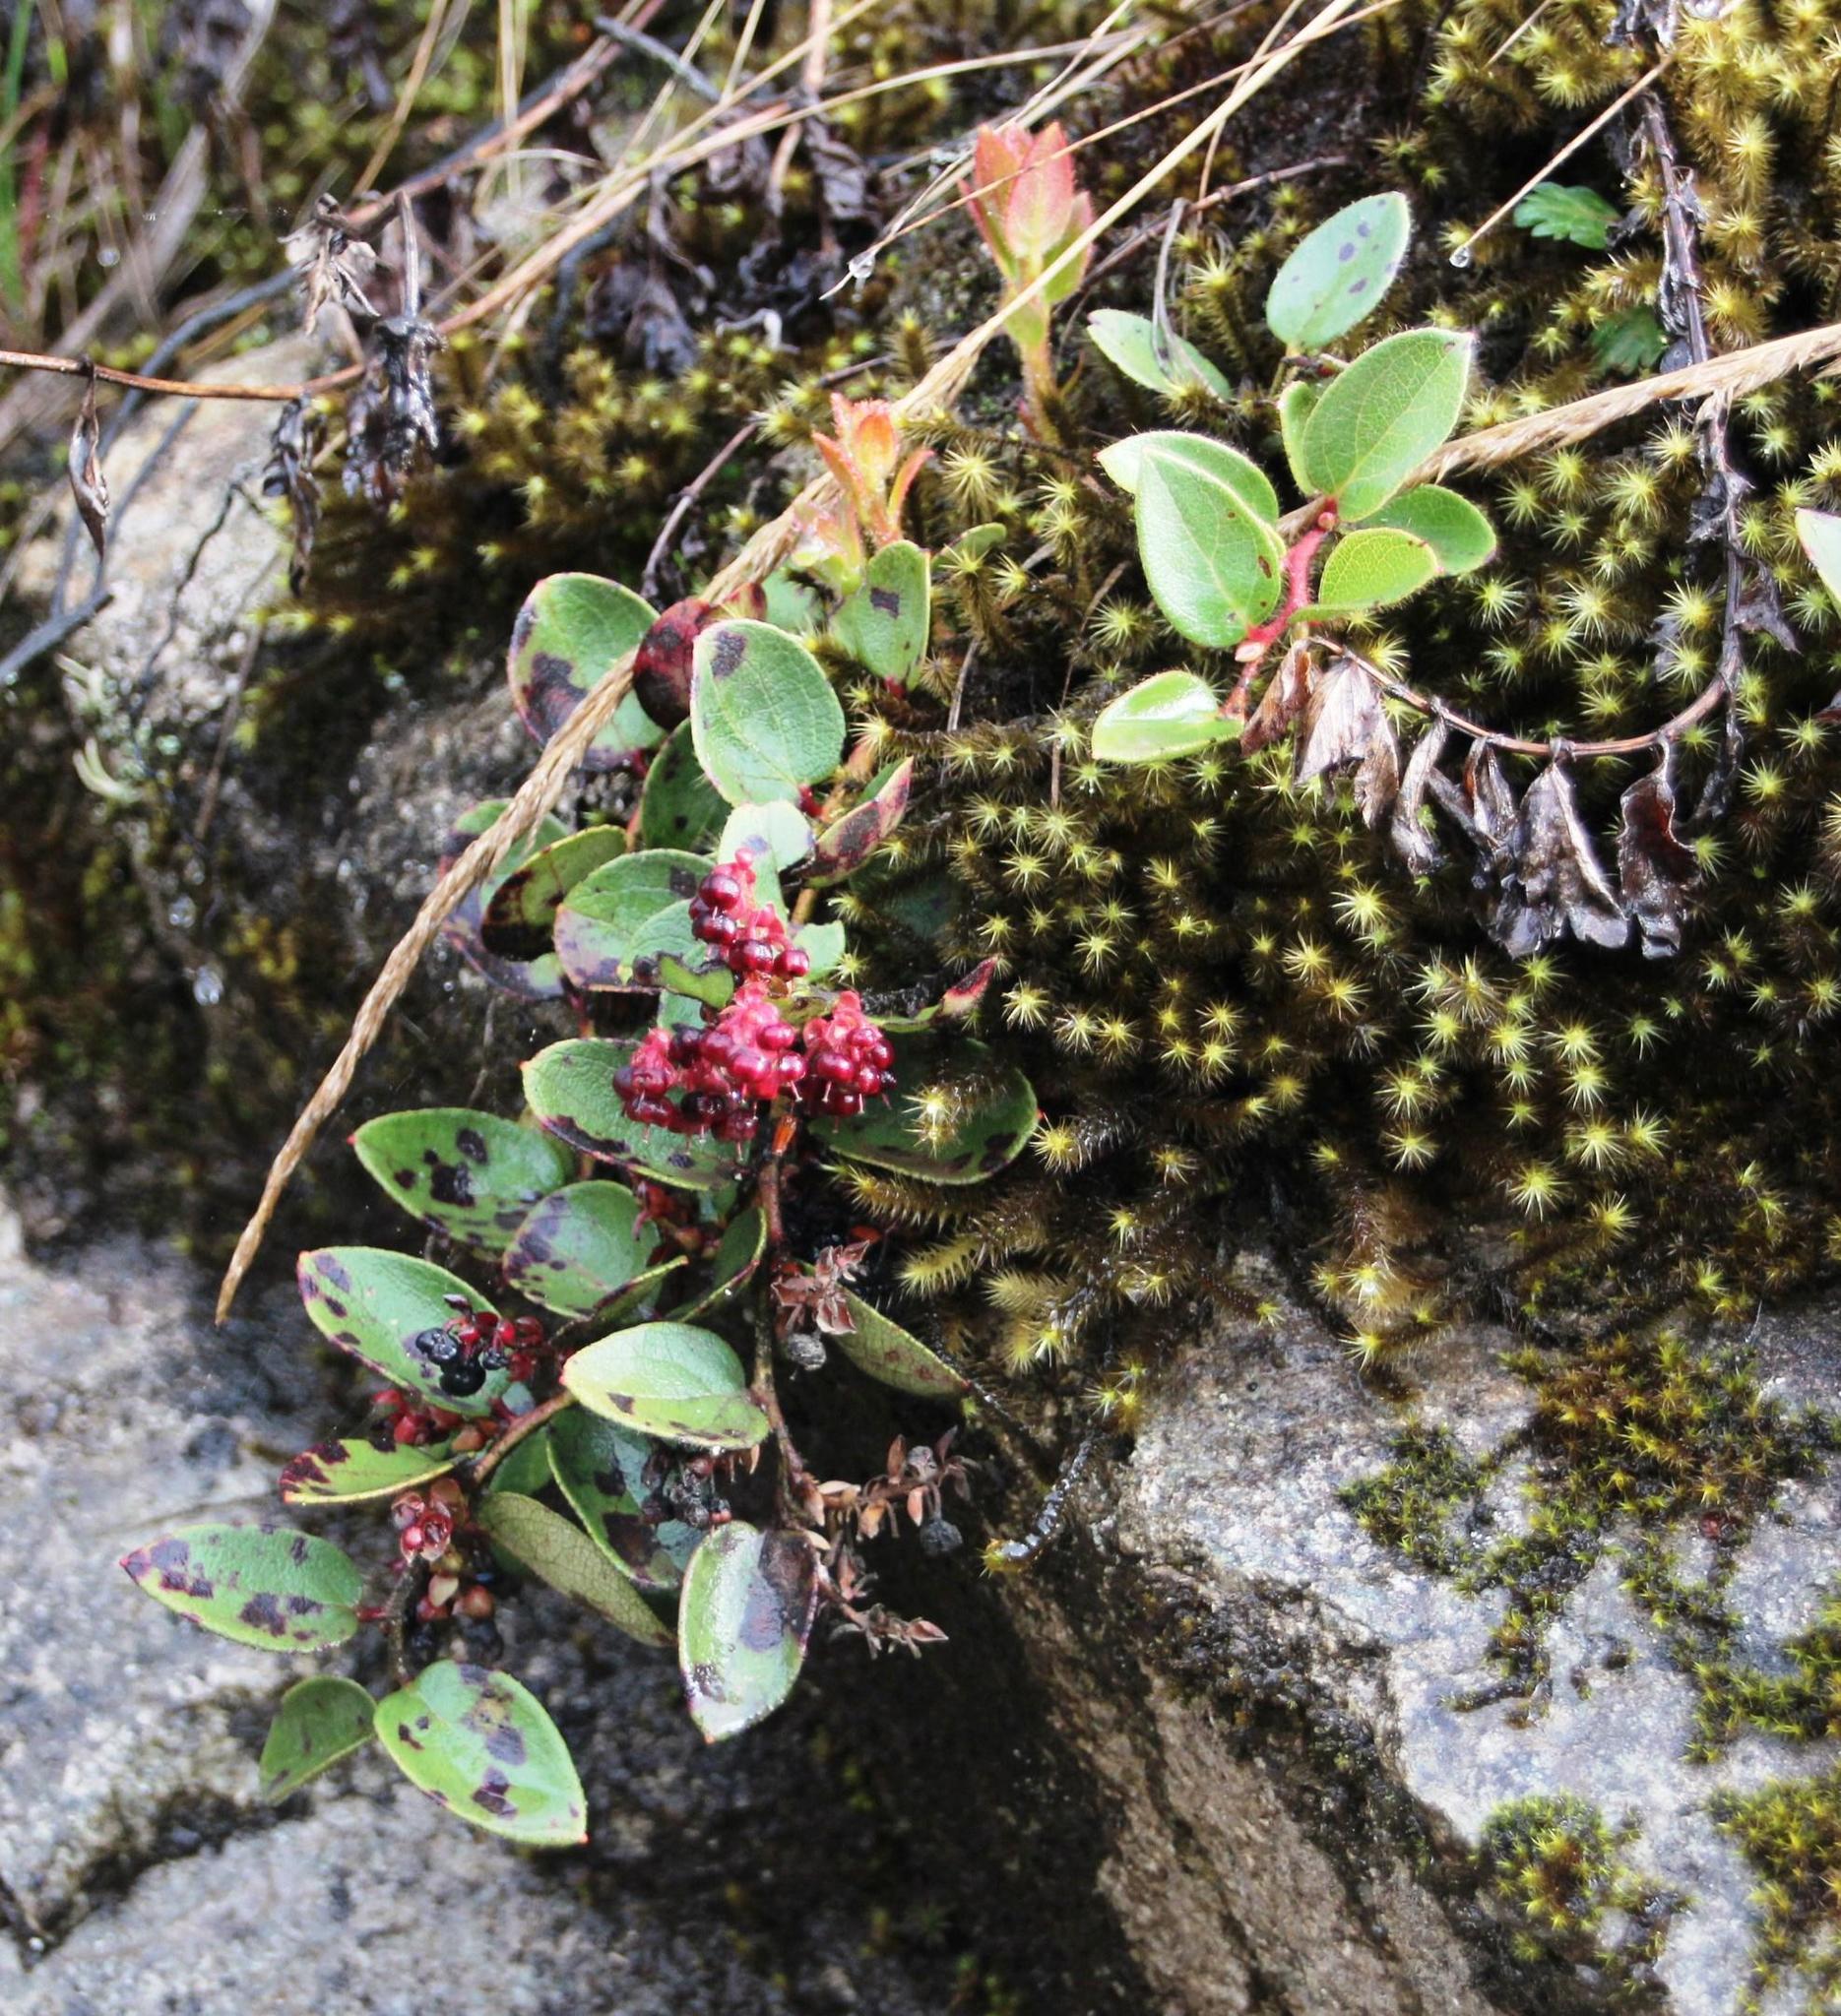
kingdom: Plantae
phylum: Tracheophyta
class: Magnoliopsida
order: Ericales
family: Ericaceae
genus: Gaultheria
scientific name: Gaultheria glomerata
